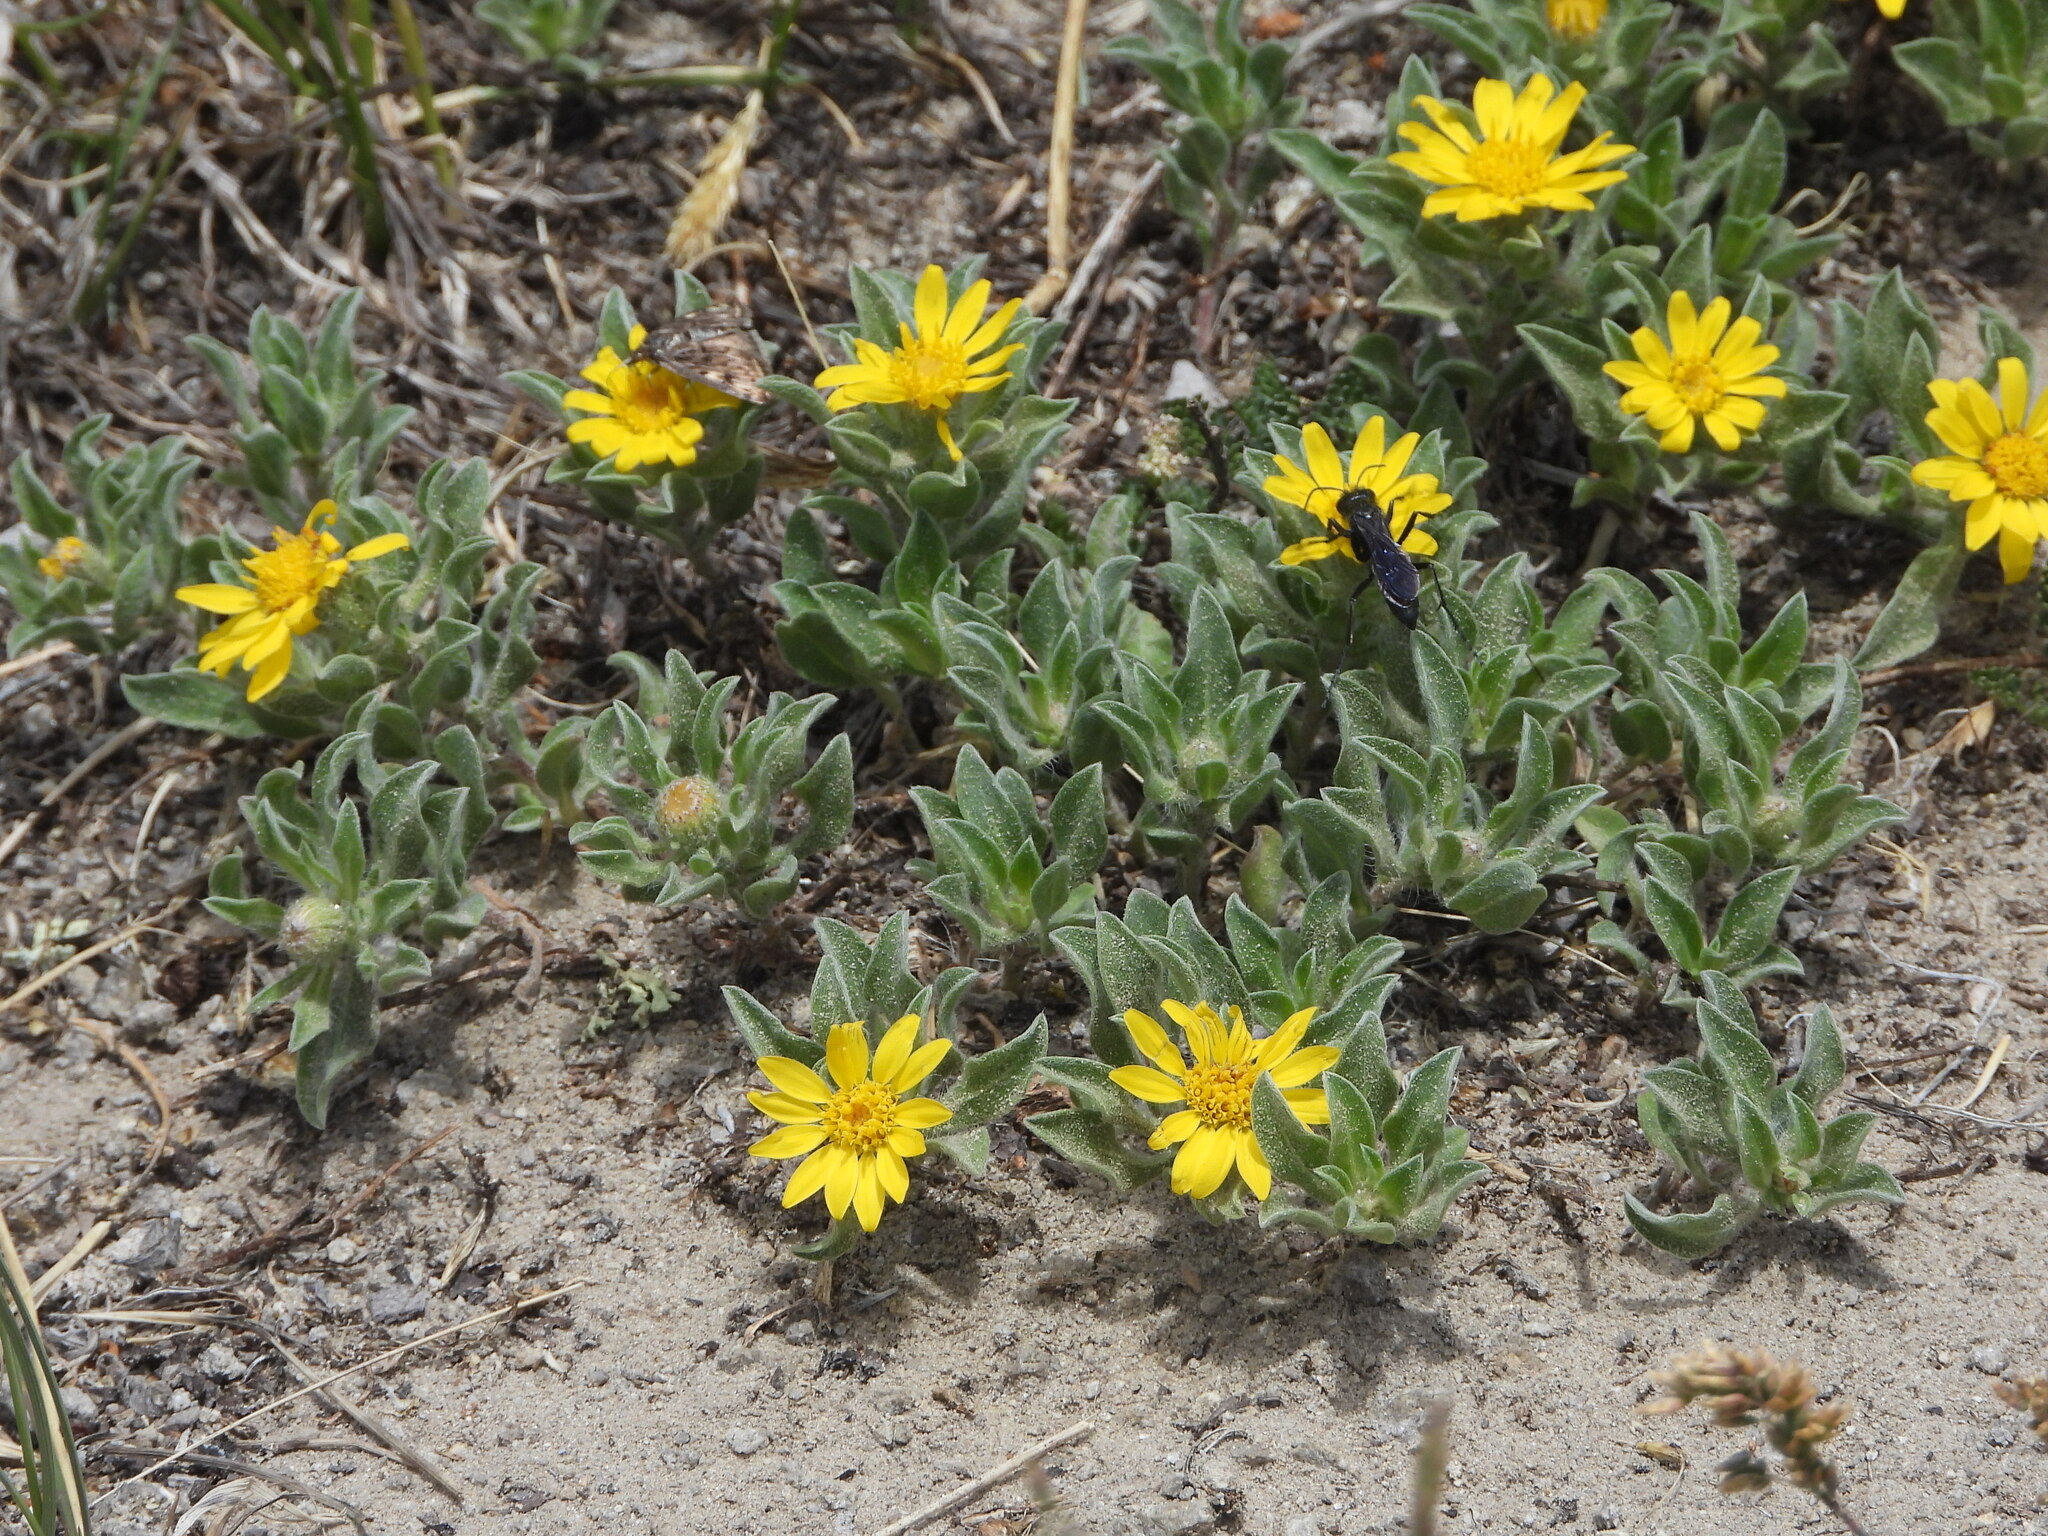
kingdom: Plantae
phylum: Tracheophyta
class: Magnoliopsida
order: Asterales
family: Asteraceae
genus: Heterotheca
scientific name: Heterotheca pumila
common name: Alpine golden-aster
